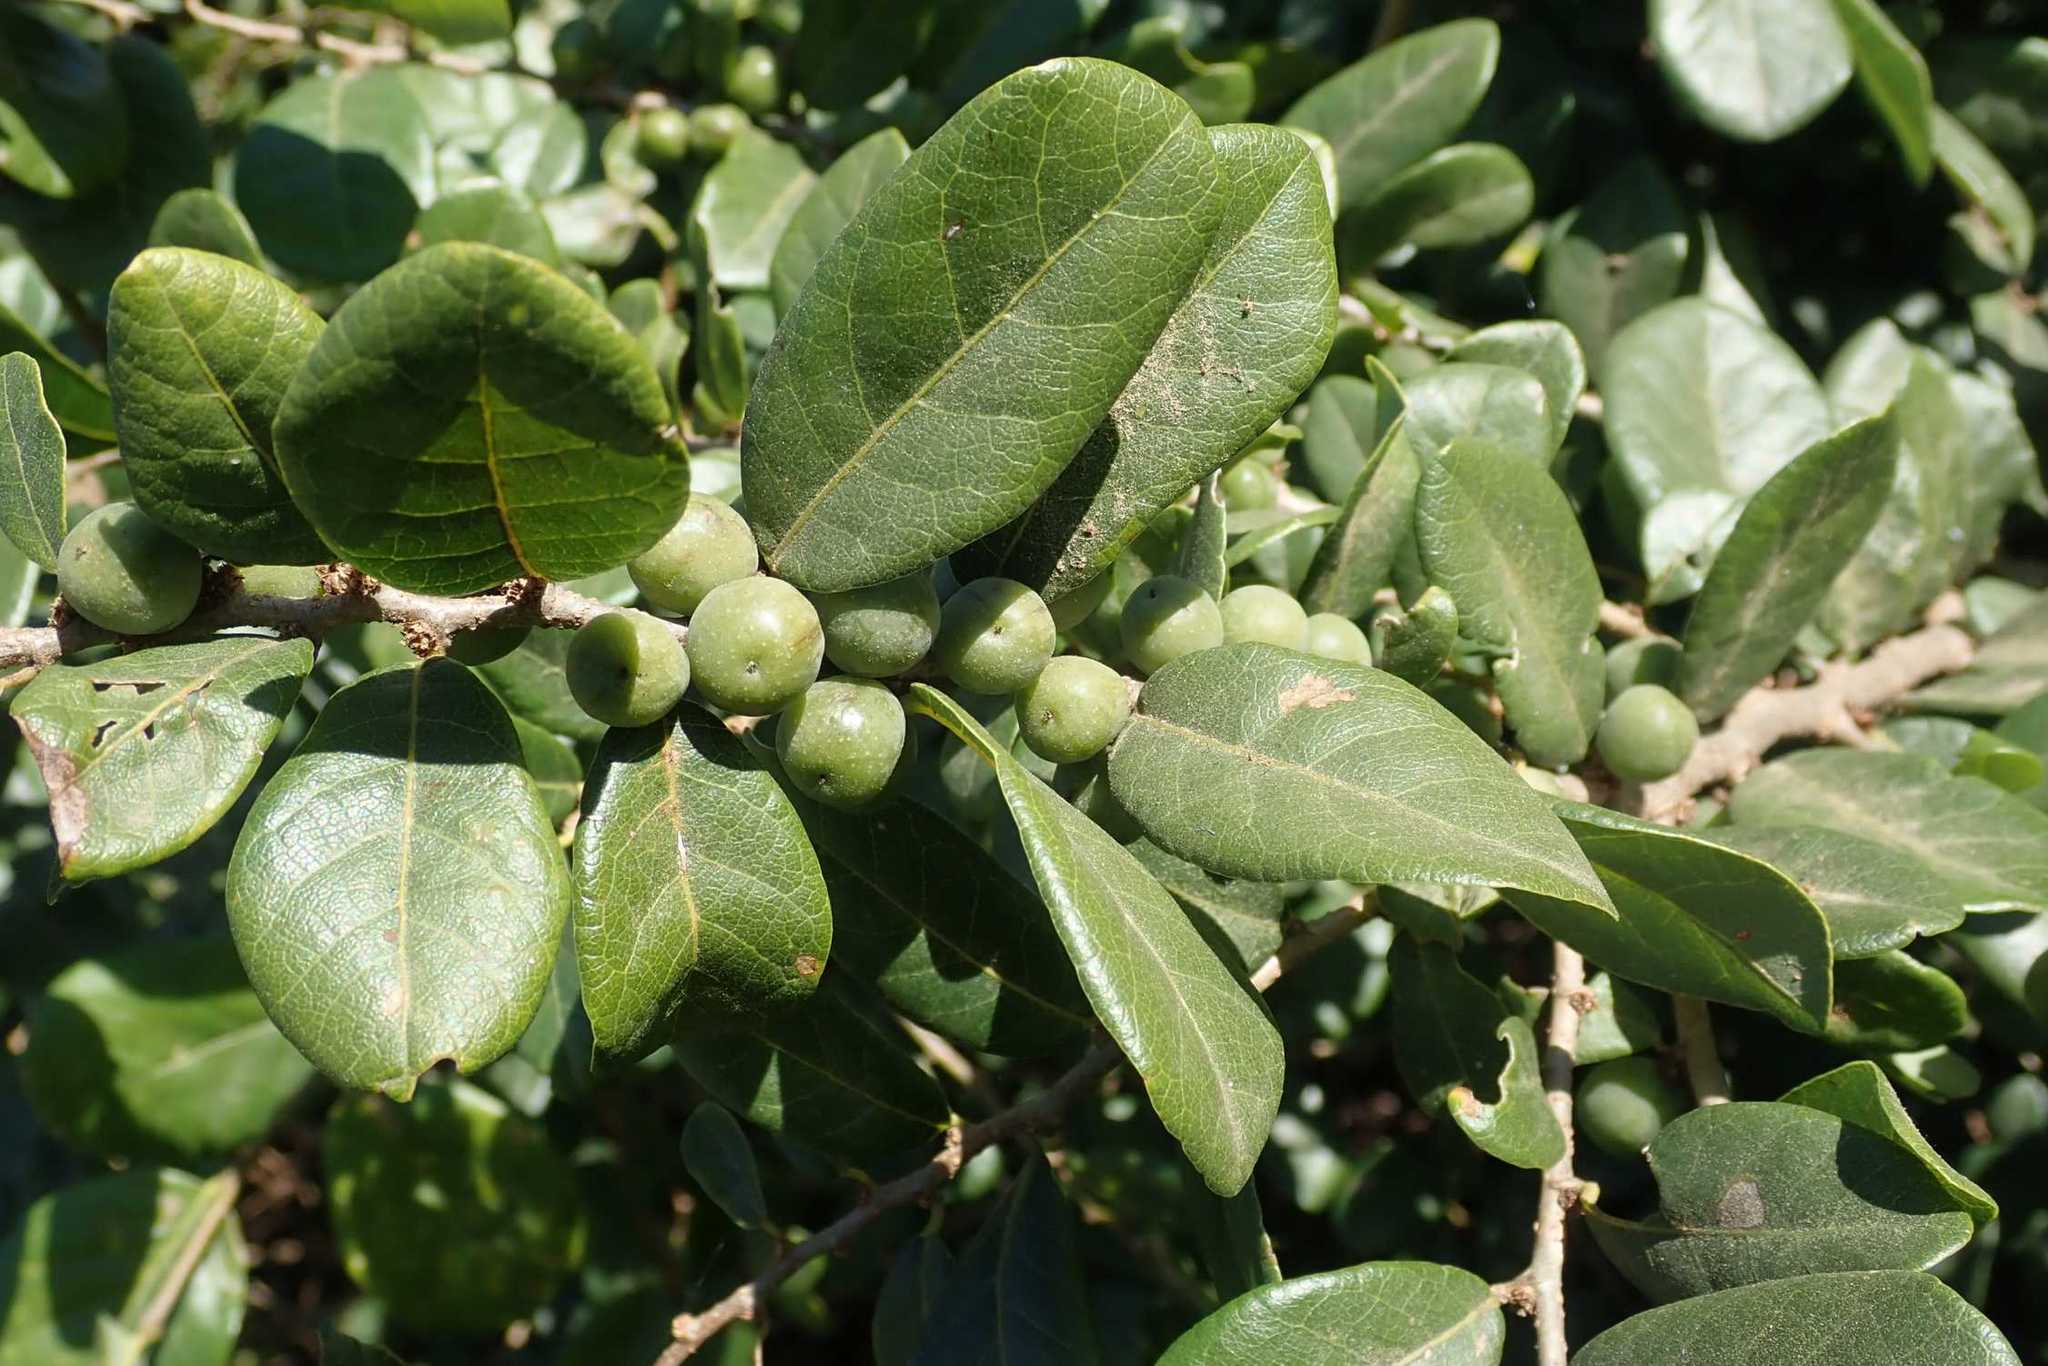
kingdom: Plantae
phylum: Tracheophyta
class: Magnoliopsida
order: Malpighiales
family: Phyllanthaceae
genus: Bridelia
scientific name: Bridelia cathartica
